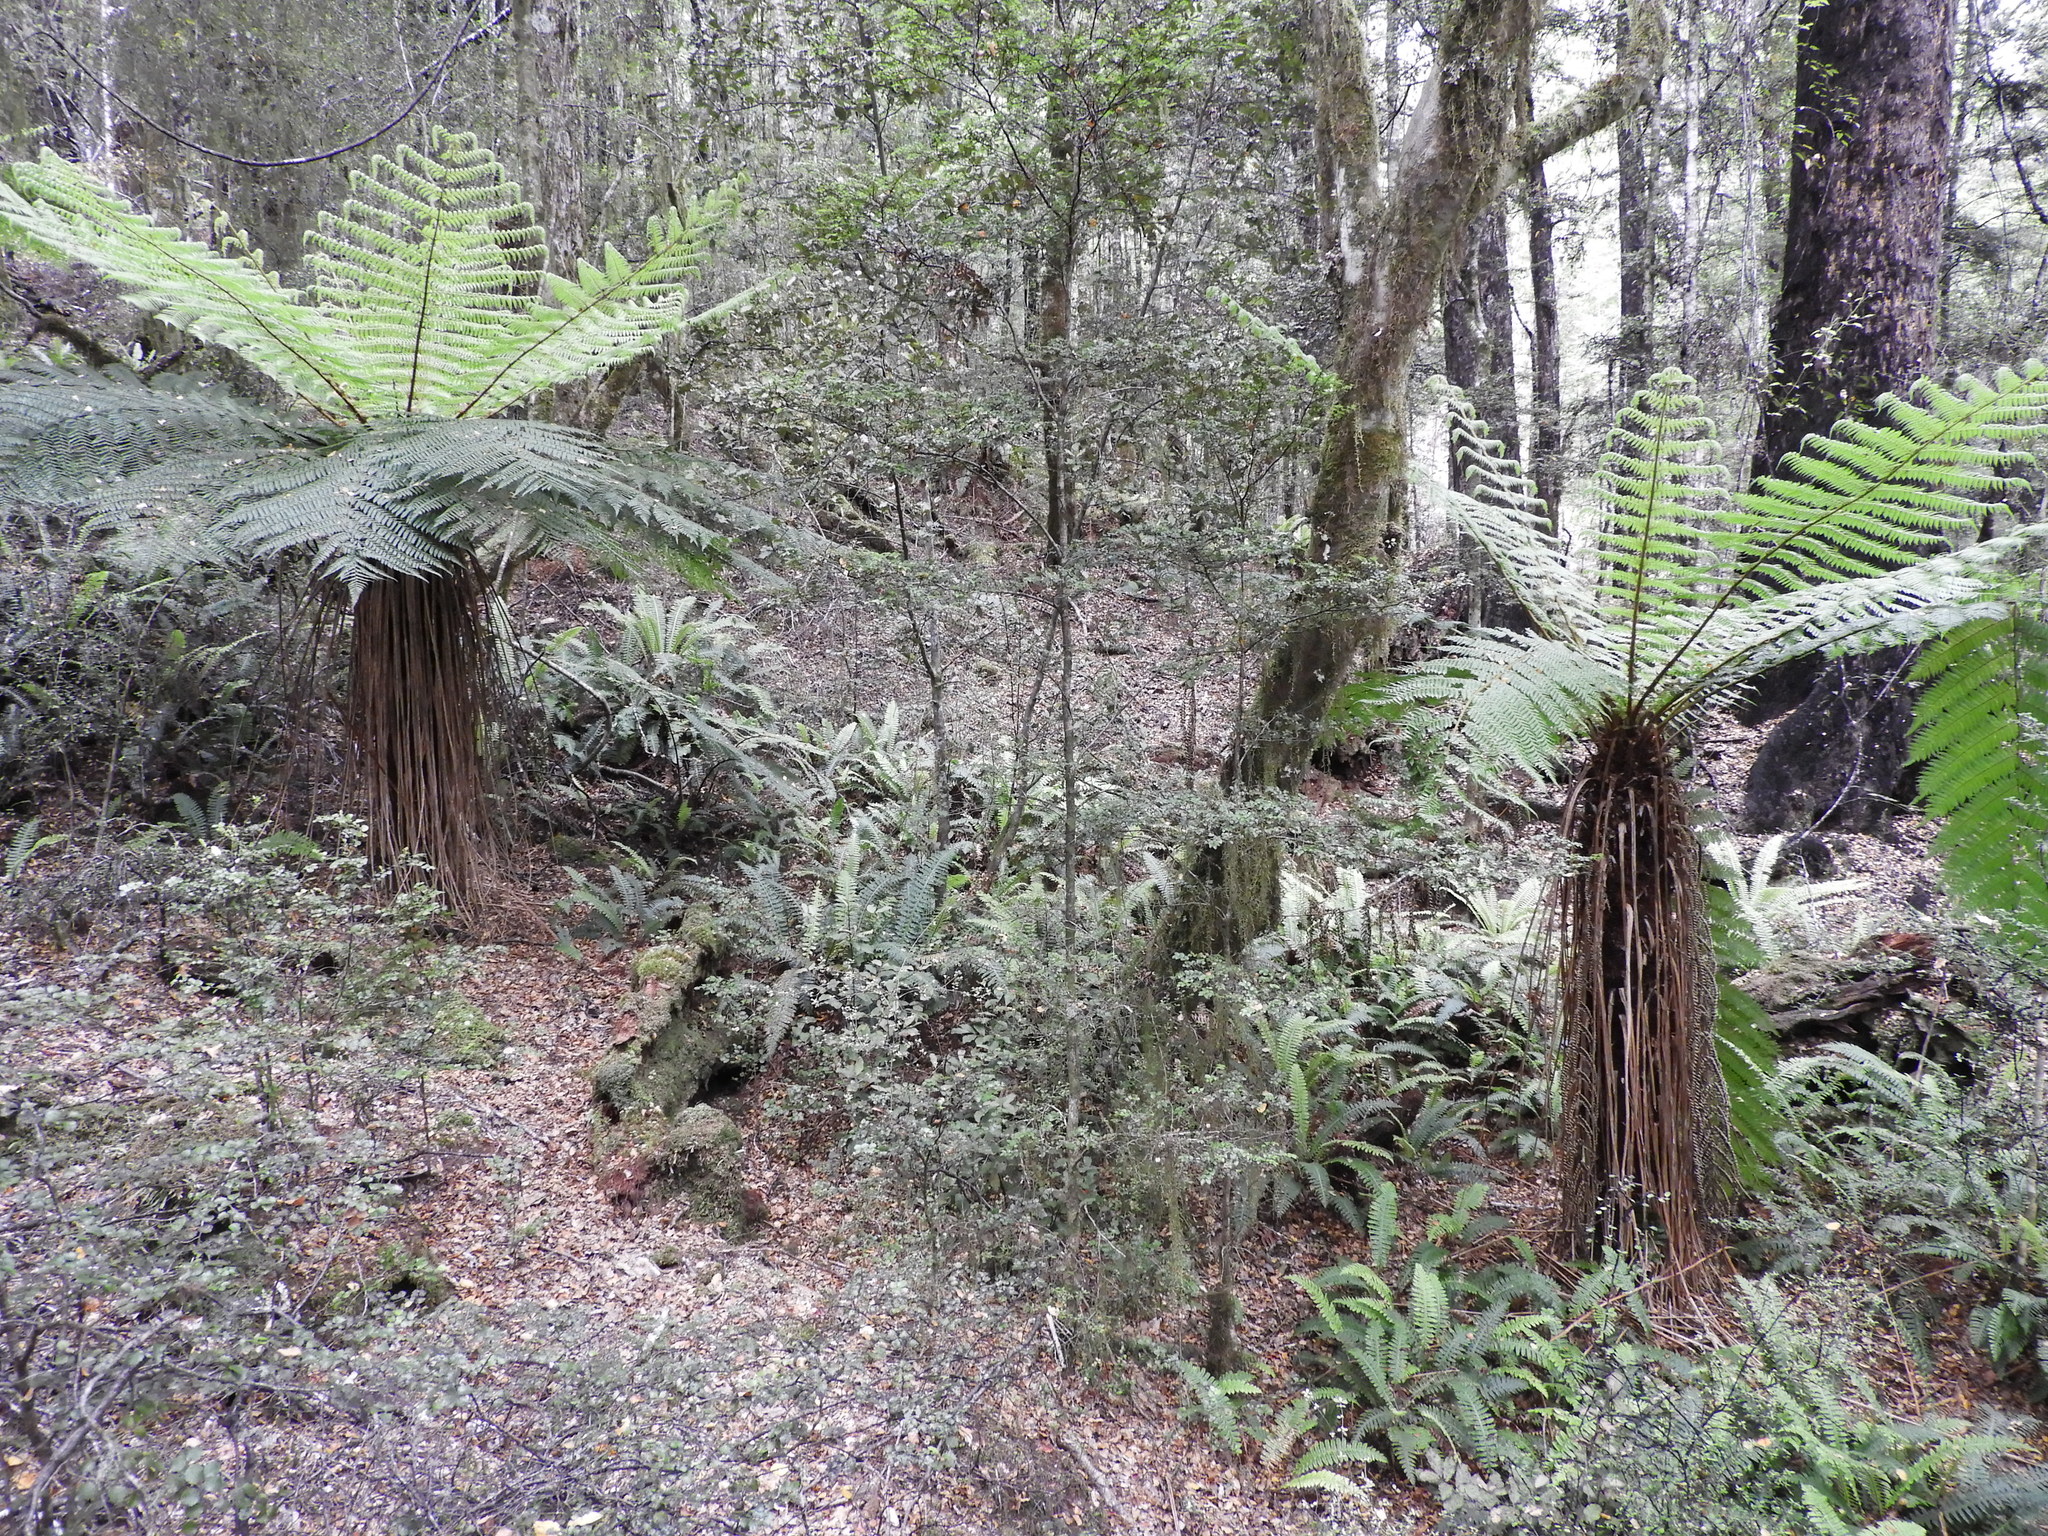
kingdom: Plantae
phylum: Tracheophyta
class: Polypodiopsida
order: Cyatheales
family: Cyatheaceae
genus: Alsophila
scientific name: Alsophila smithii
